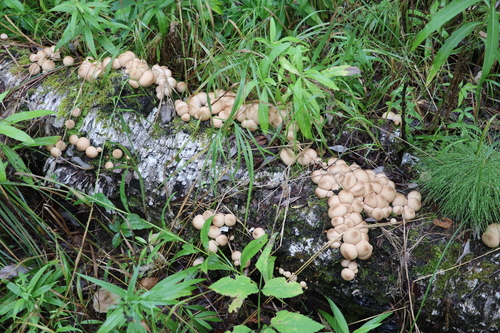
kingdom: Fungi
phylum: Basidiomycota
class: Agaricomycetes
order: Agaricales
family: Lycoperdaceae
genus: Apioperdon
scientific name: Apioperdon pyriforme
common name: Pear-shaped puffball
